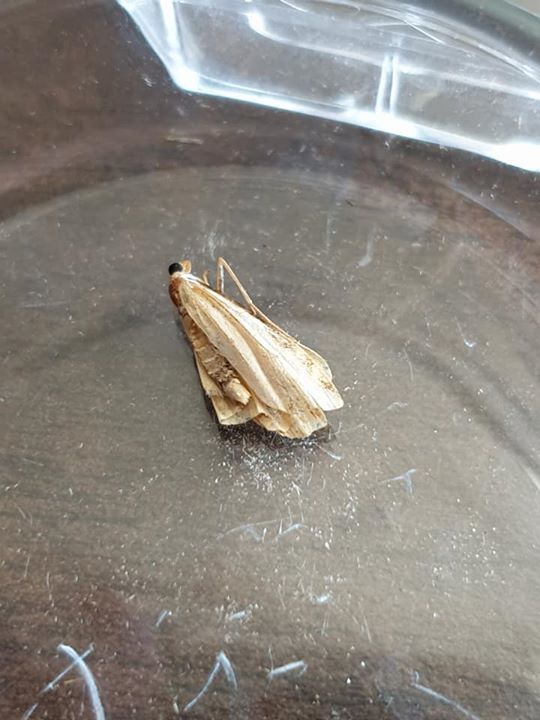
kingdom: Animalia
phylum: Arthropoda
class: Insecta
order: Lepidoptera
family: Crambidae
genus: Orocrambus
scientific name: Orocrambus flexuosellus
